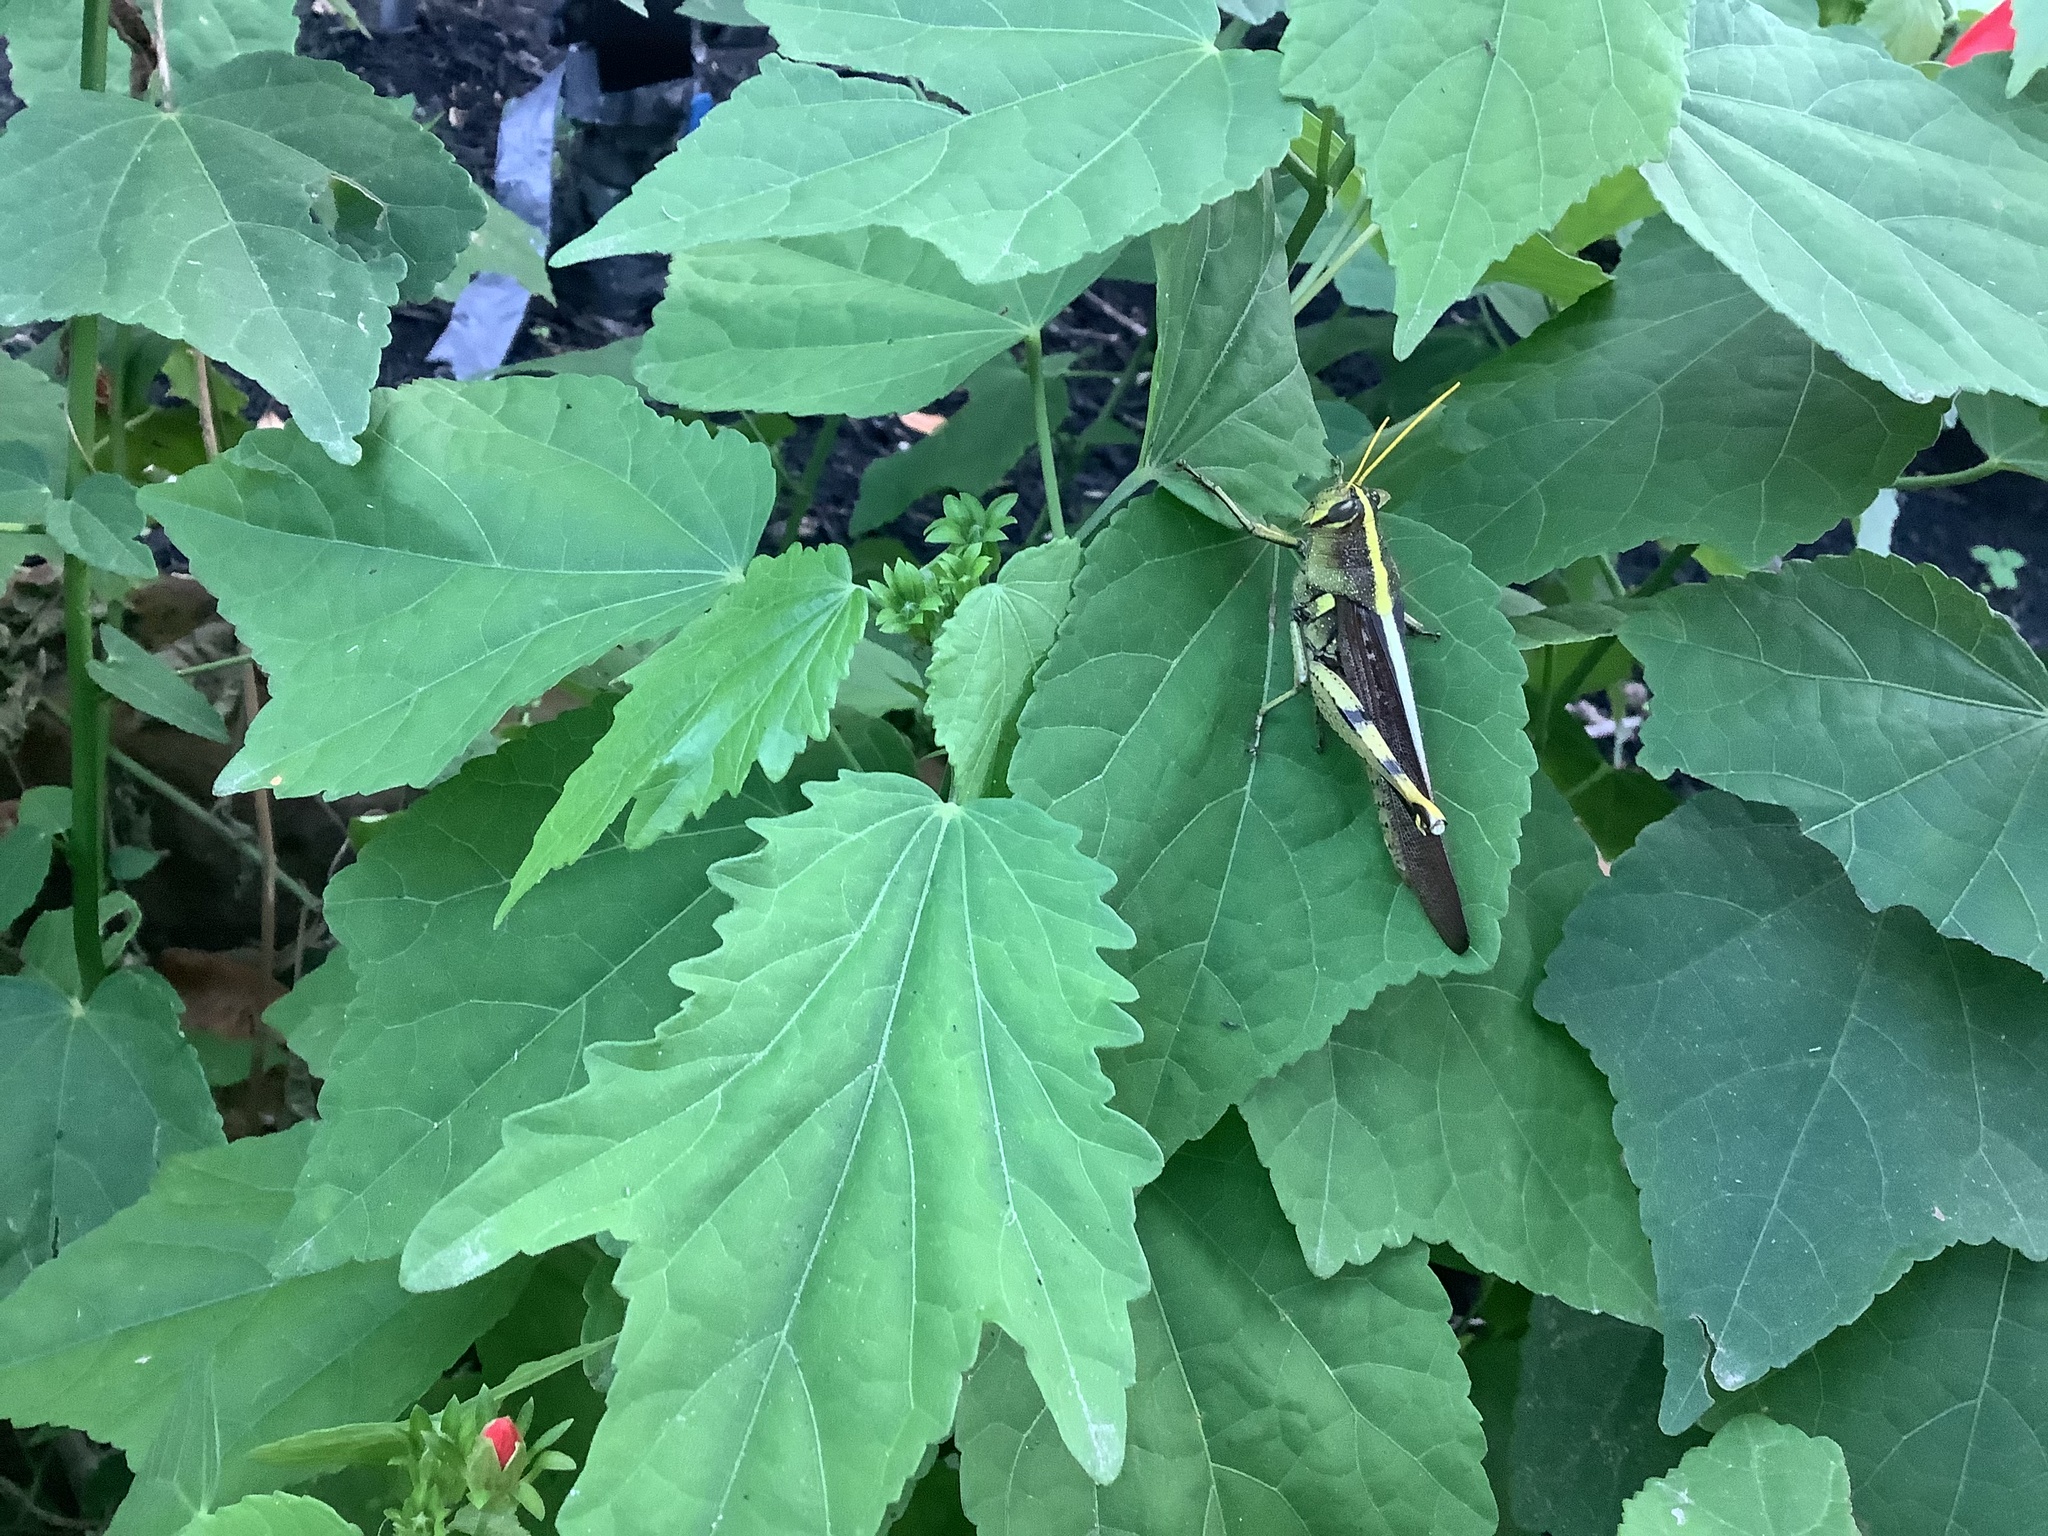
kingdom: Animalia
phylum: Arthropoda
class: Insecta
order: Orthoptera
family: Acrididae
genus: Schistocerca
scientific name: Schistocerca obscura
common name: Obscure bird grasshopper
